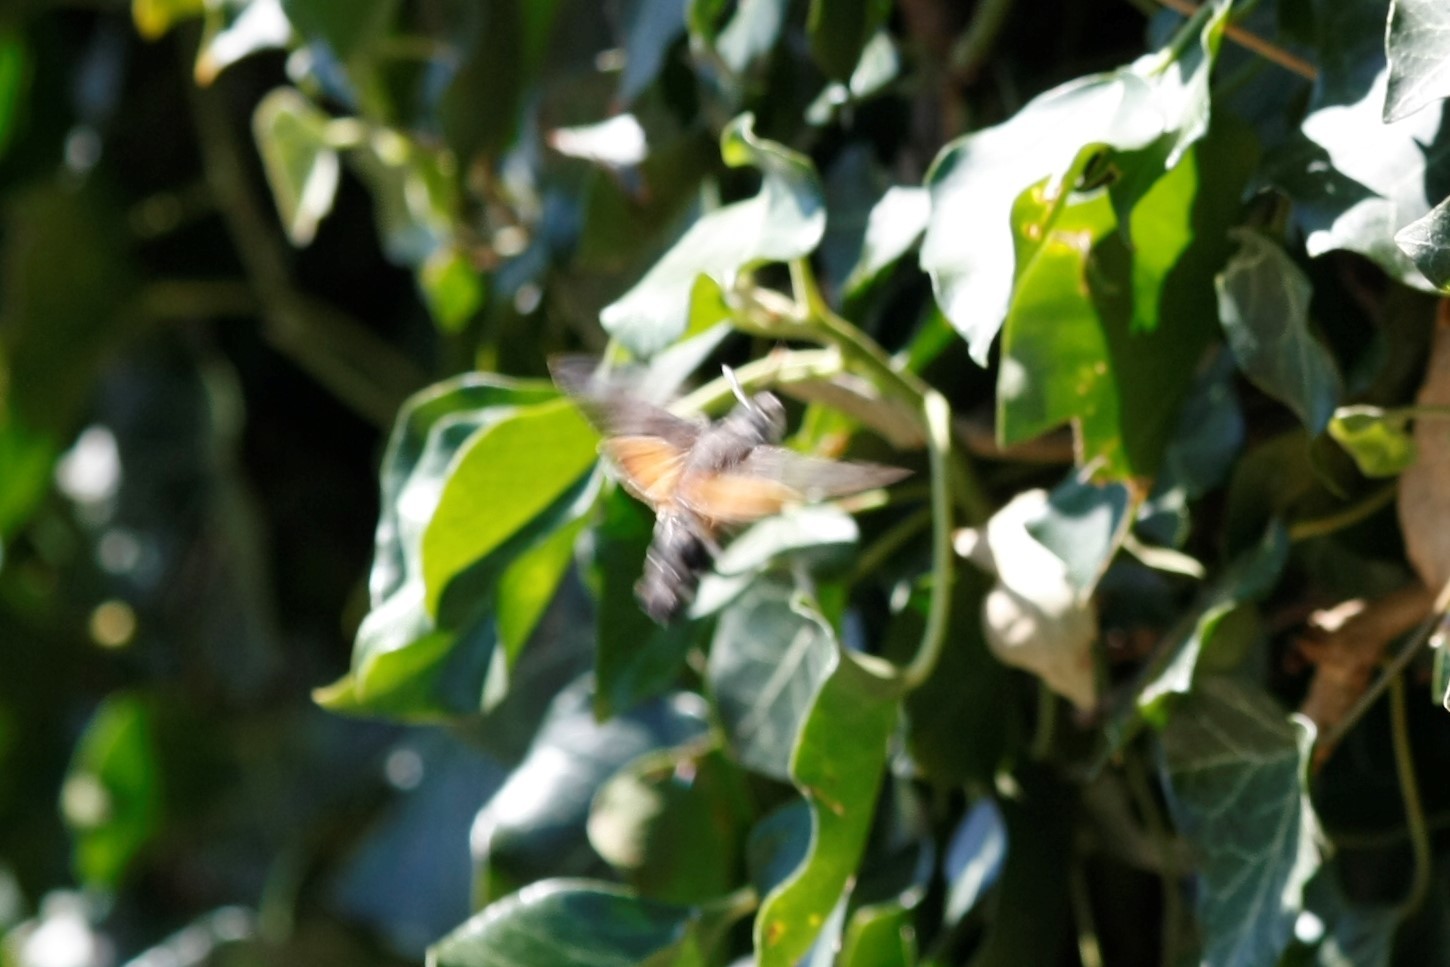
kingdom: Animalia
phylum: Arthropoda
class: Insecta
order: Lepidoptera
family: Sphingidae
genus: Macroglossum
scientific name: Macroglossum stellatarum
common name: Humming-bird hawk-moth
